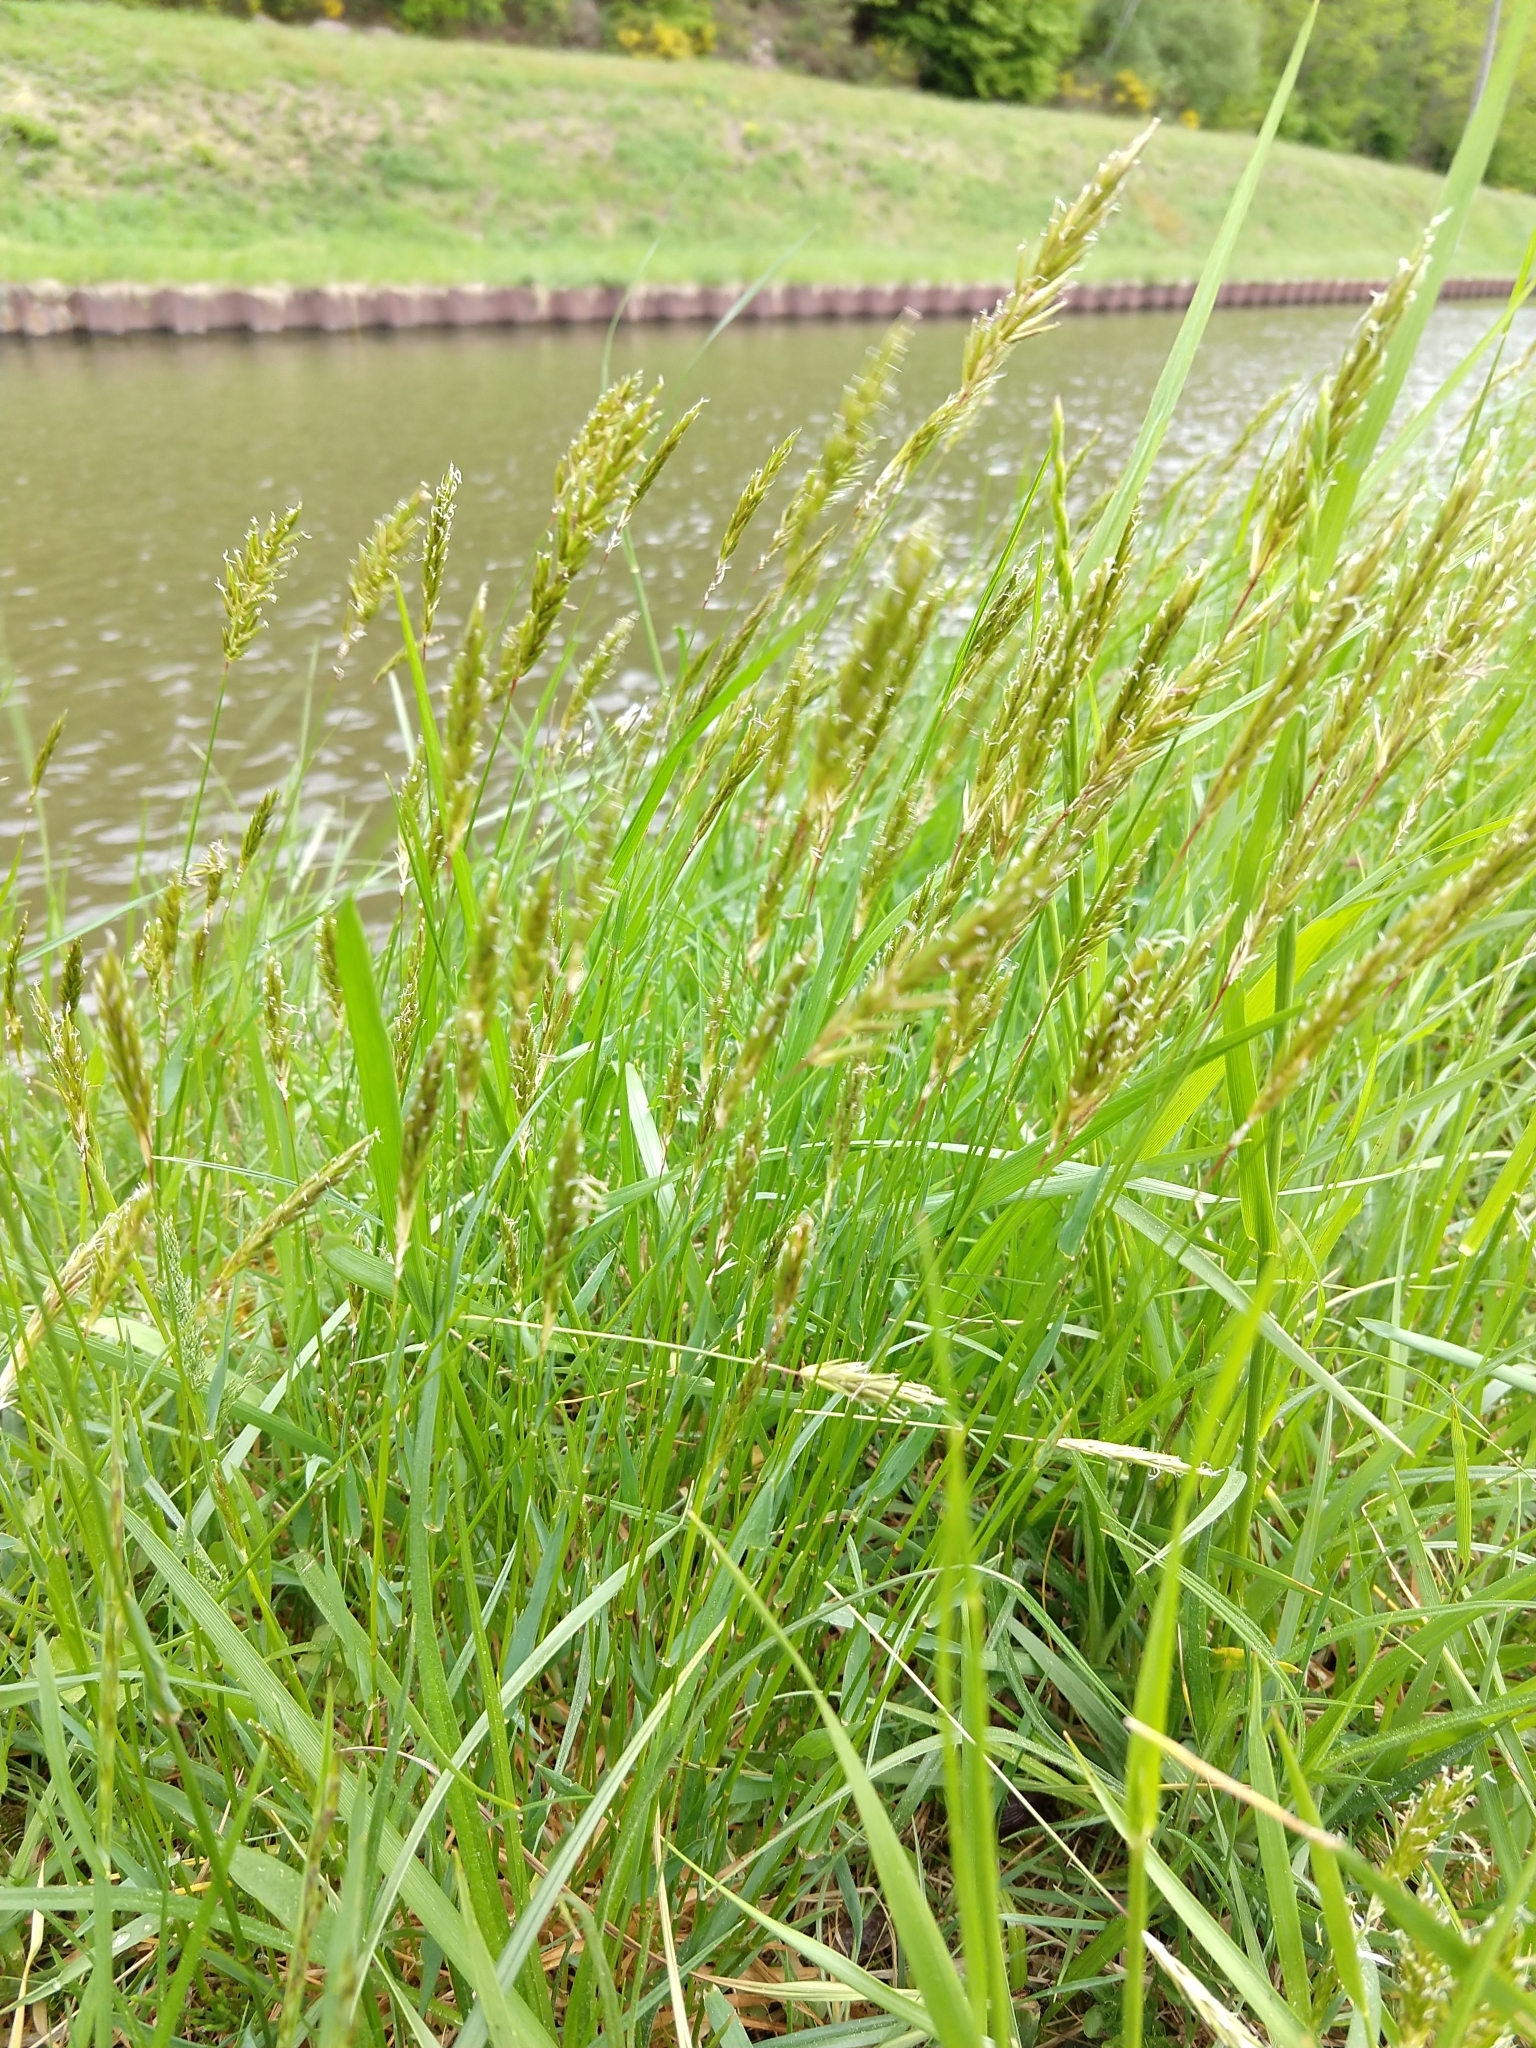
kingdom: Plantae
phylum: Tracheophyta
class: Liliopsida
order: Poales
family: Poaceae
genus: Anthoxanthum
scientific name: Anthoxanthum odoratum
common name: Sweet vernalgrass
